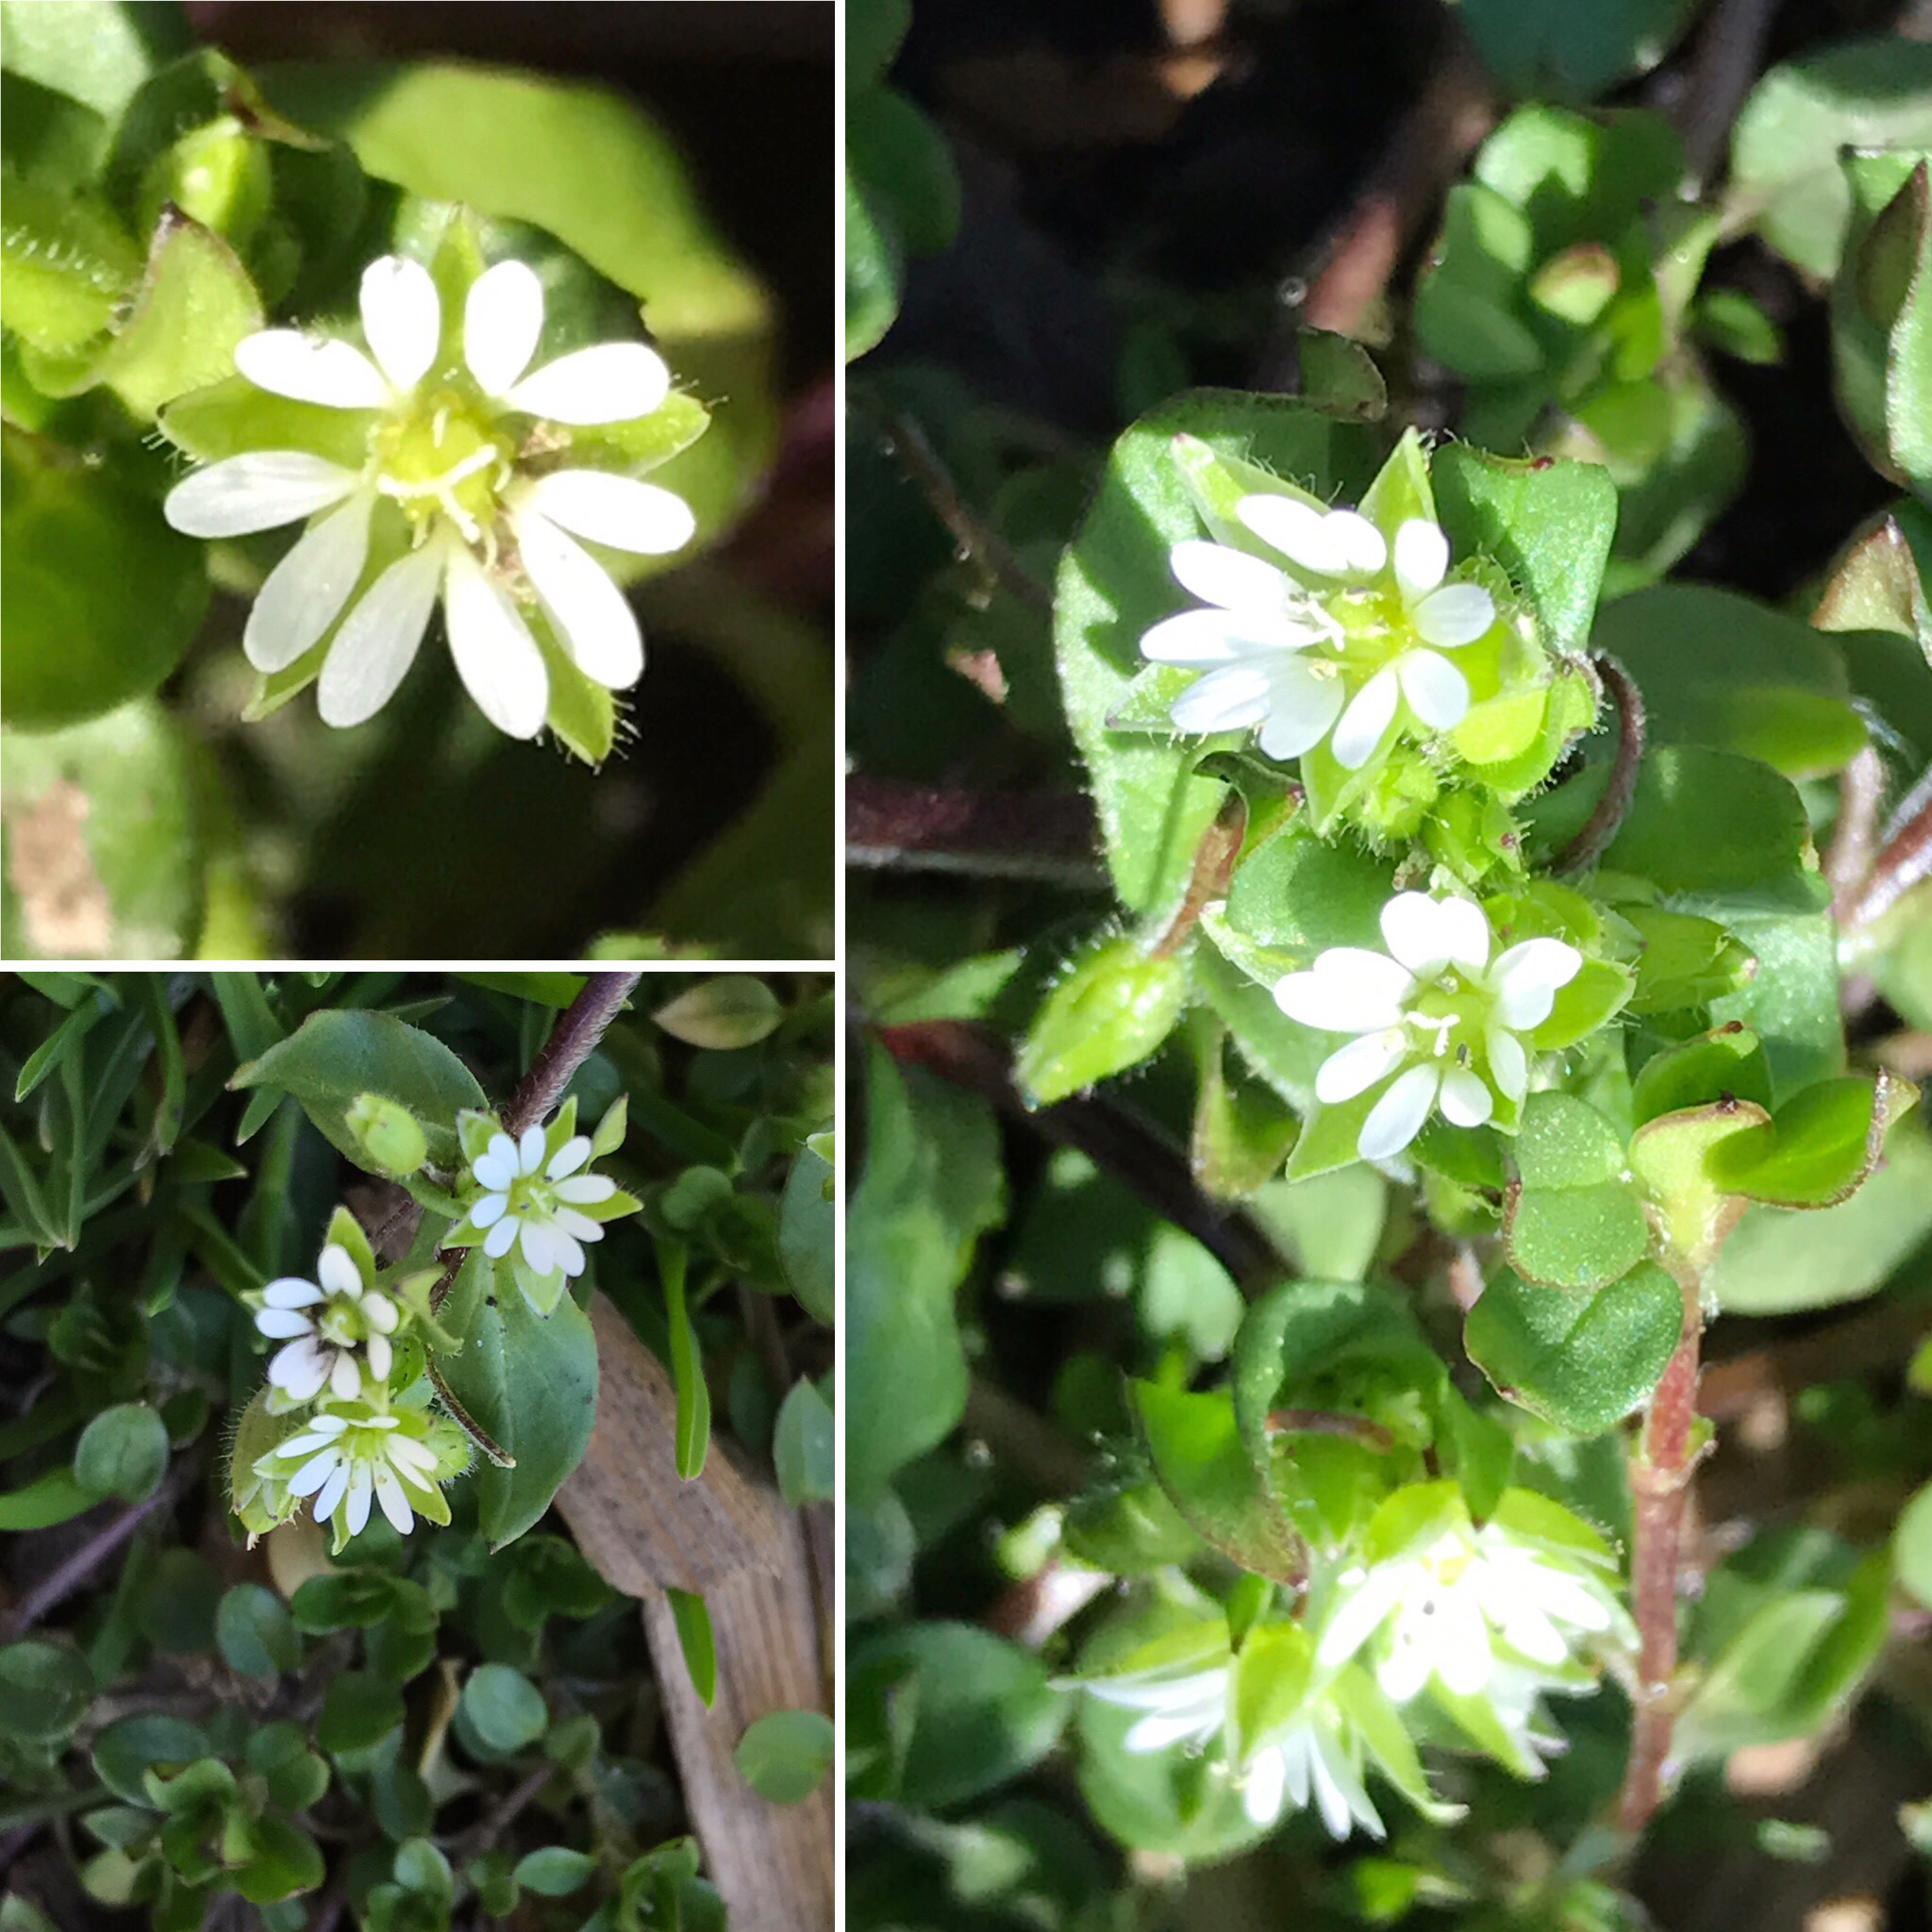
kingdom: Plantae
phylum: Tracheophyta
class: Magnoliopsida
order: Caryophyllales
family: Caryophyllaceae
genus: Stellaria
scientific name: Stellaria media
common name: Common chickweed
